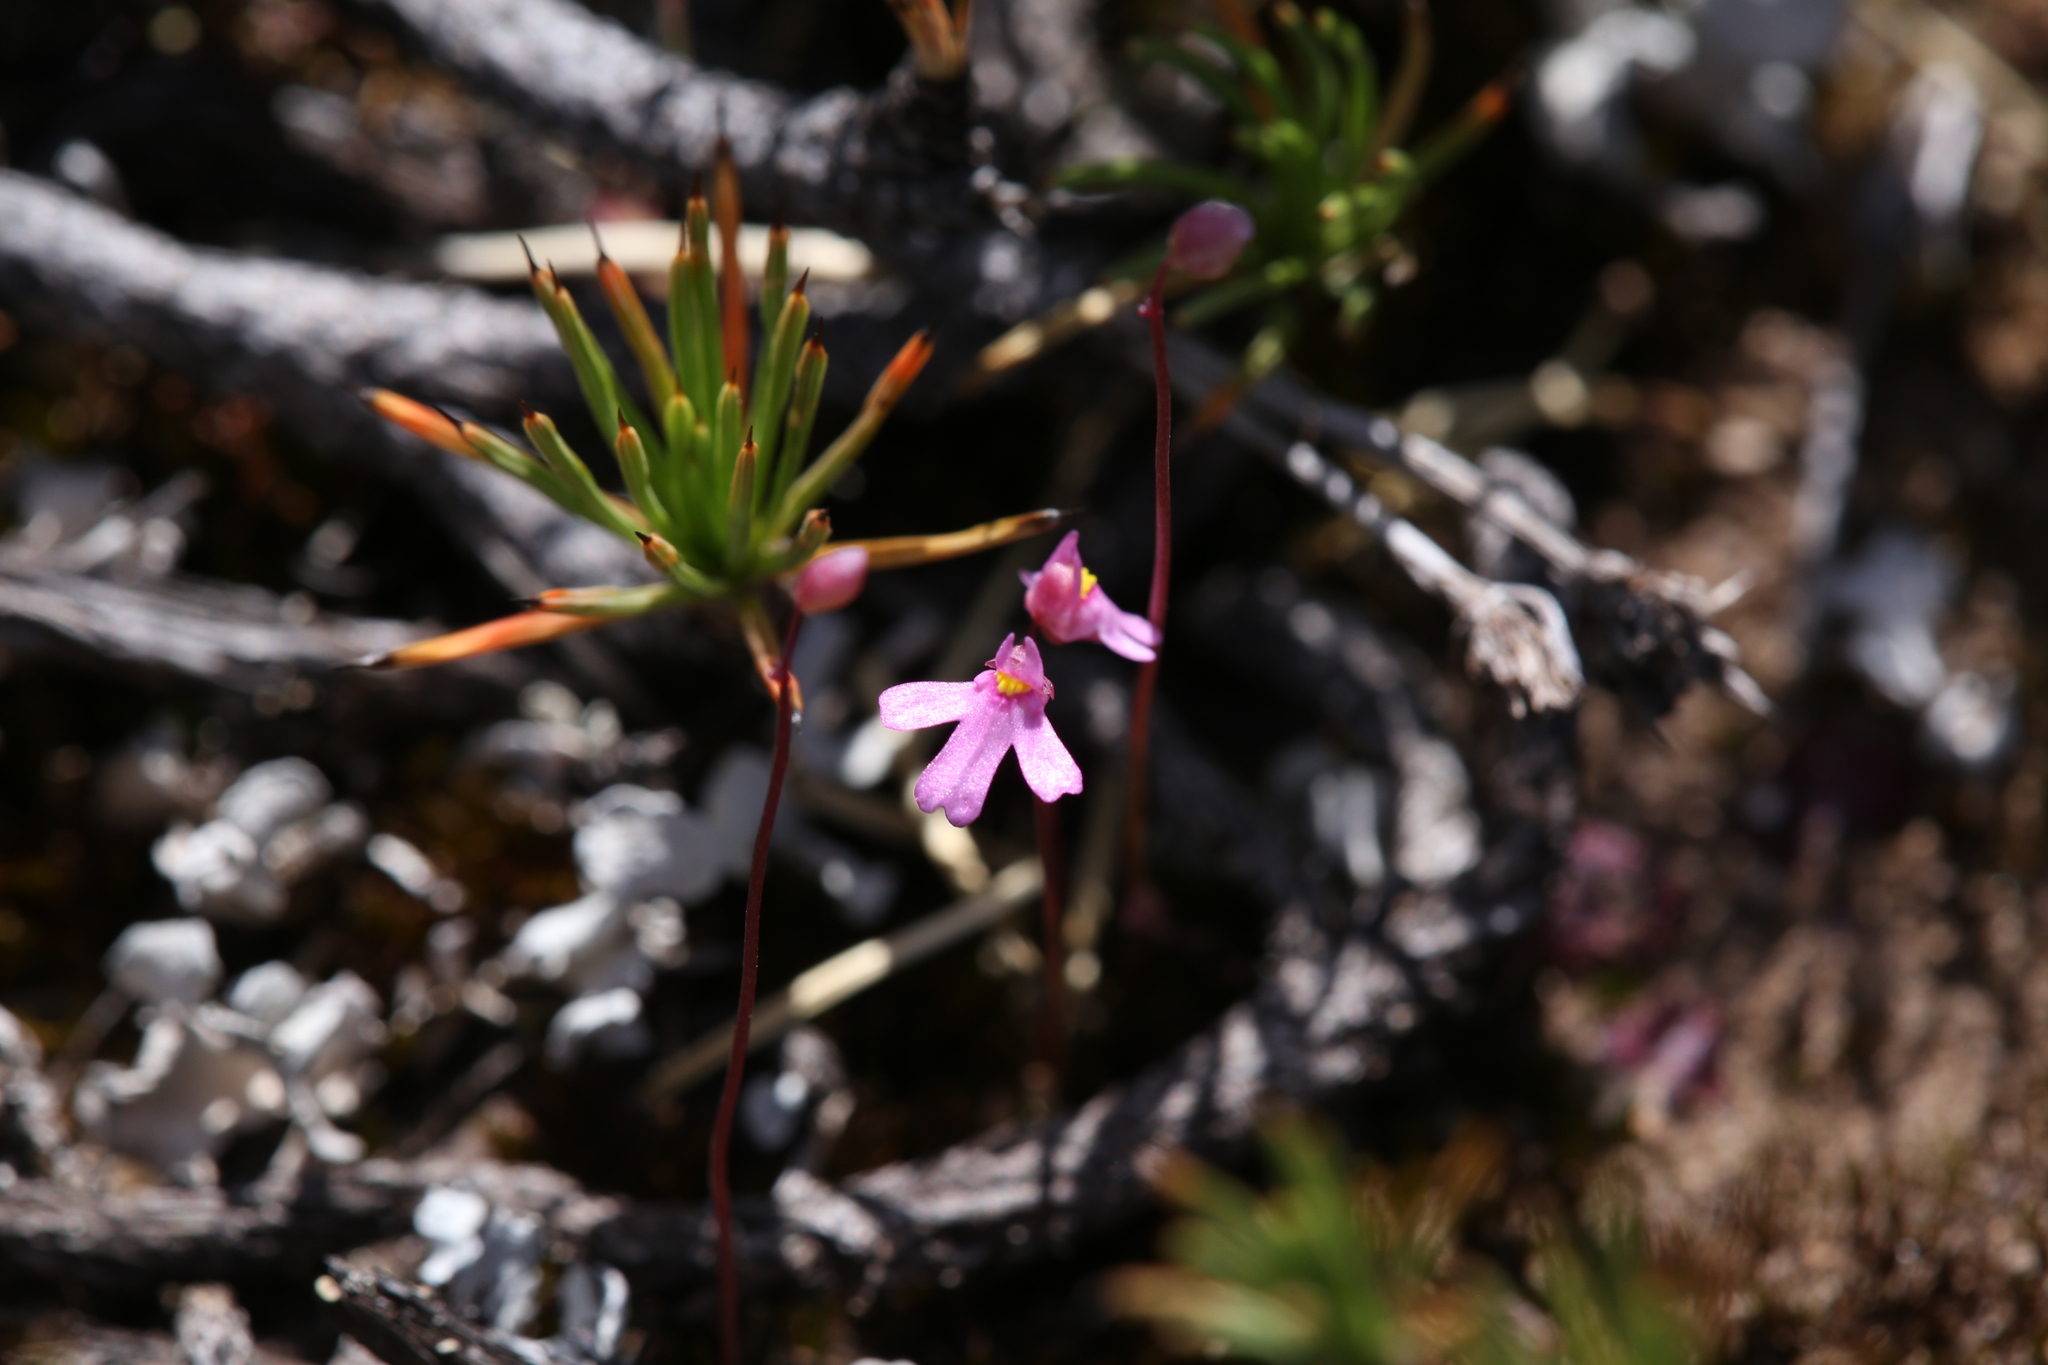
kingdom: Plantae
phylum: Tracheophyta
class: Magnoliopsida
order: Lamiales
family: Lentibulariaceae
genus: Utricularia
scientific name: Utricularia multifida
